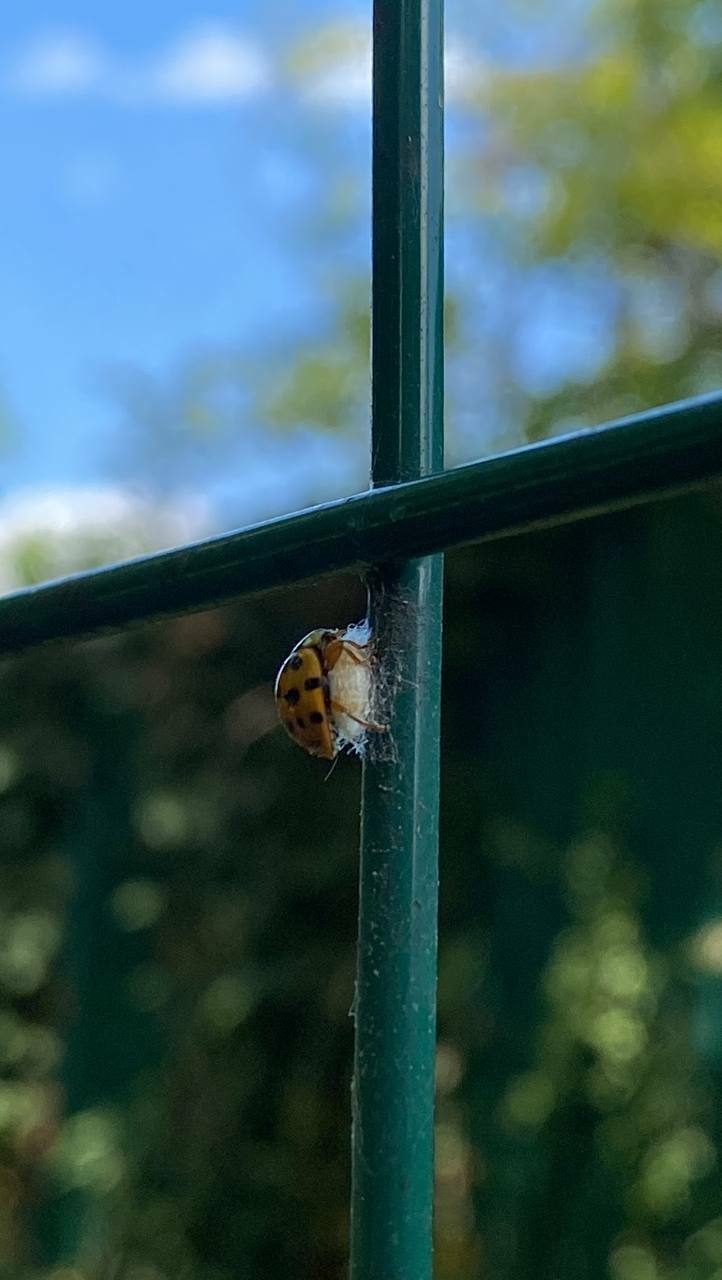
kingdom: Animalia
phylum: Arthropoda
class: Insecta
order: Coleoptera
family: Coccinellidae
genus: Harmonia
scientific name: Harmonia axyridis
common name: Harlequin ladybird
